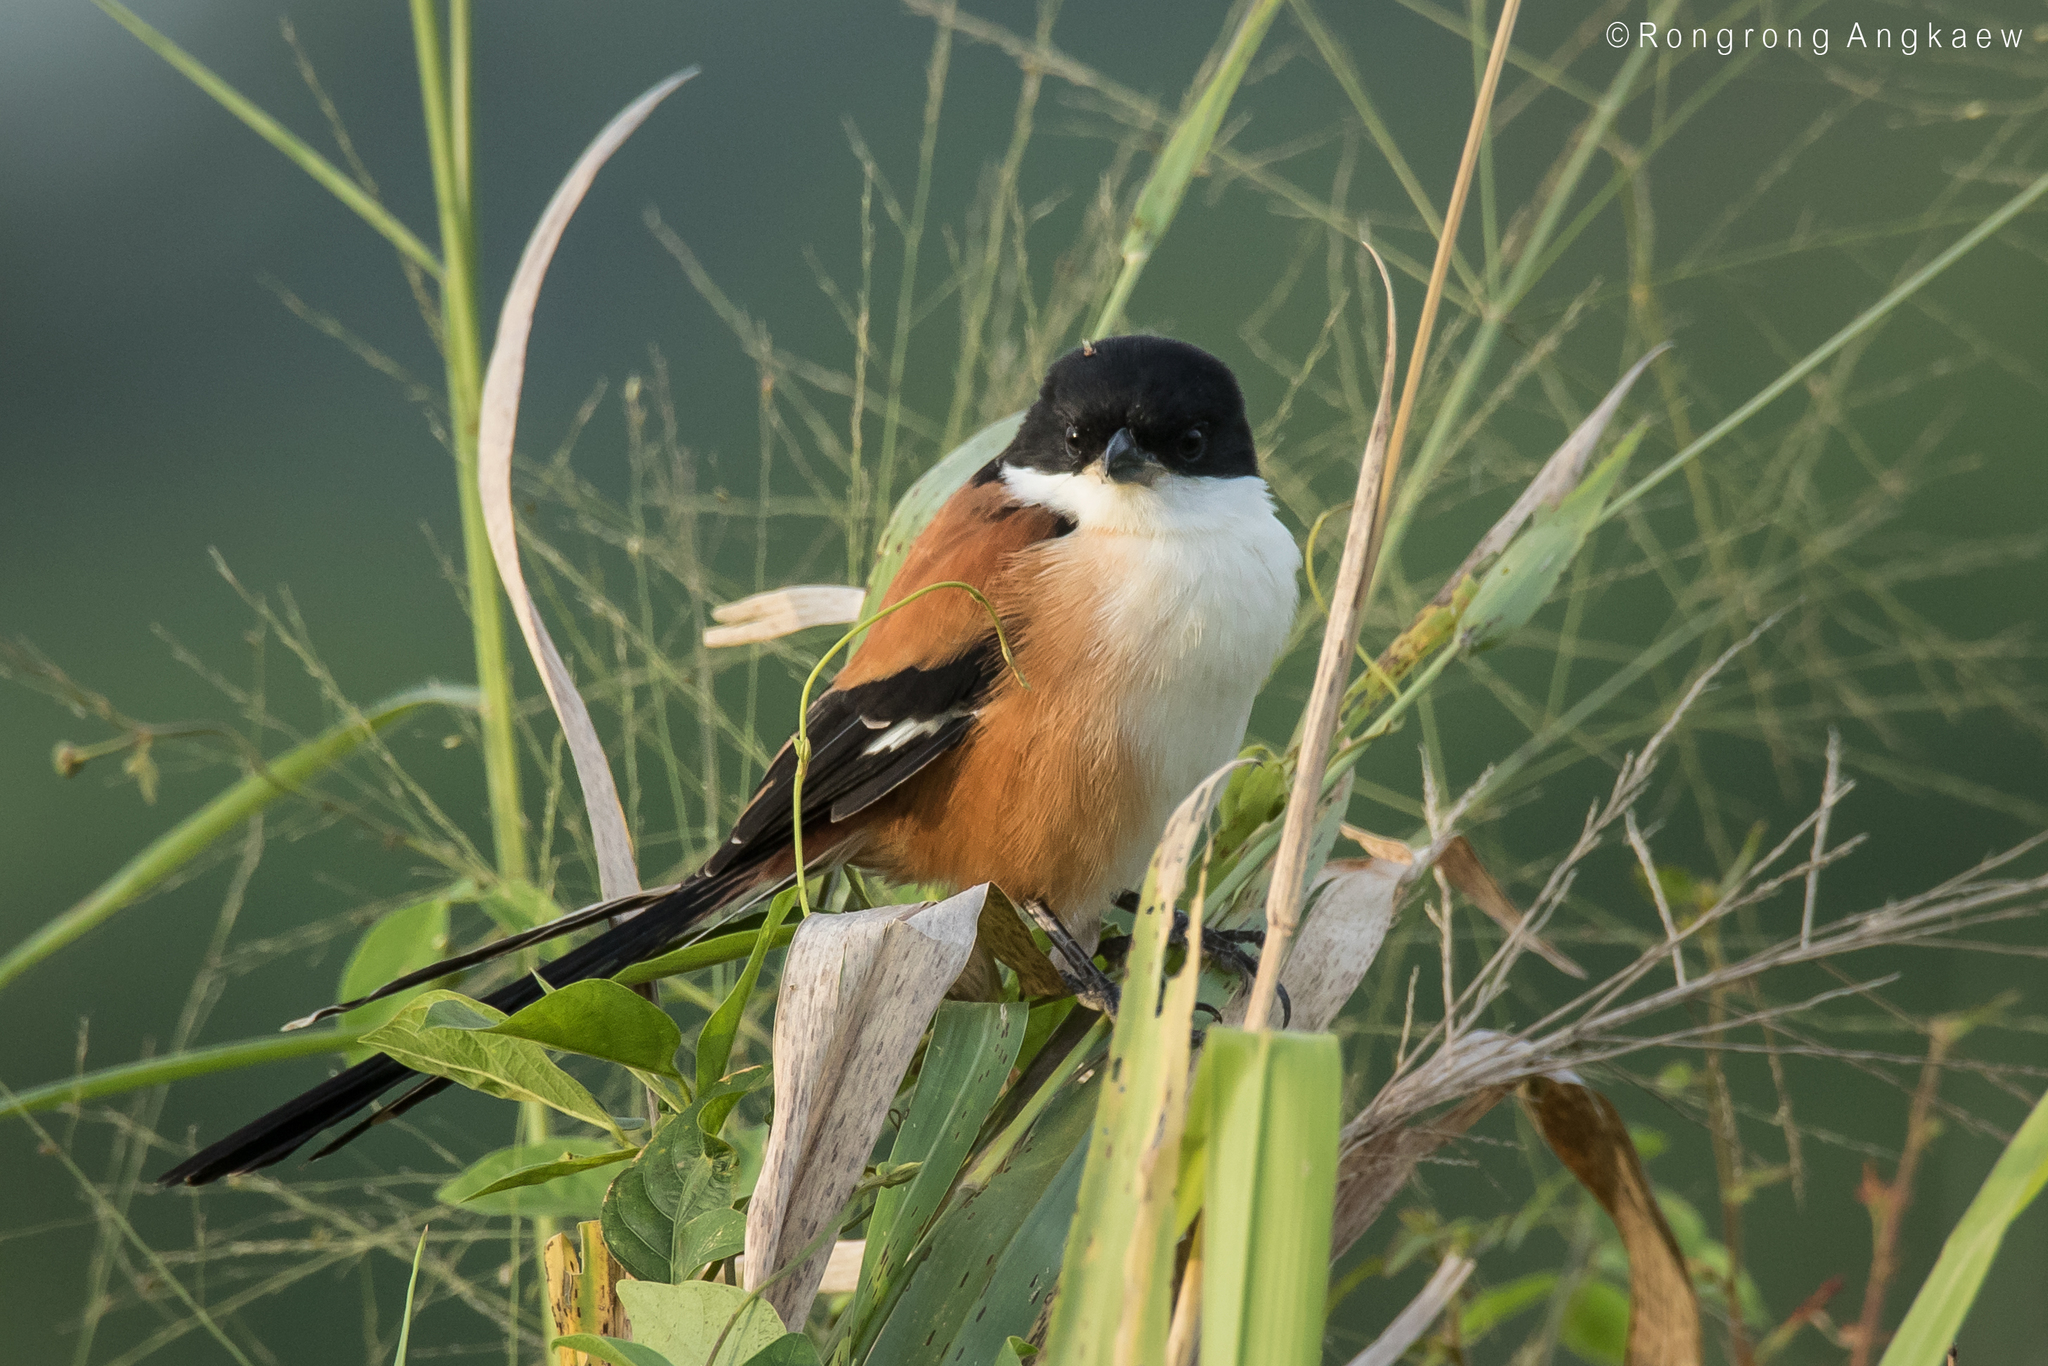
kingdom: Animalia
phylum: Chordata
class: Aves
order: Passeriformes
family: Laniidae
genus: Lanius
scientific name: Lanius schach
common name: Long-tailed shrike
